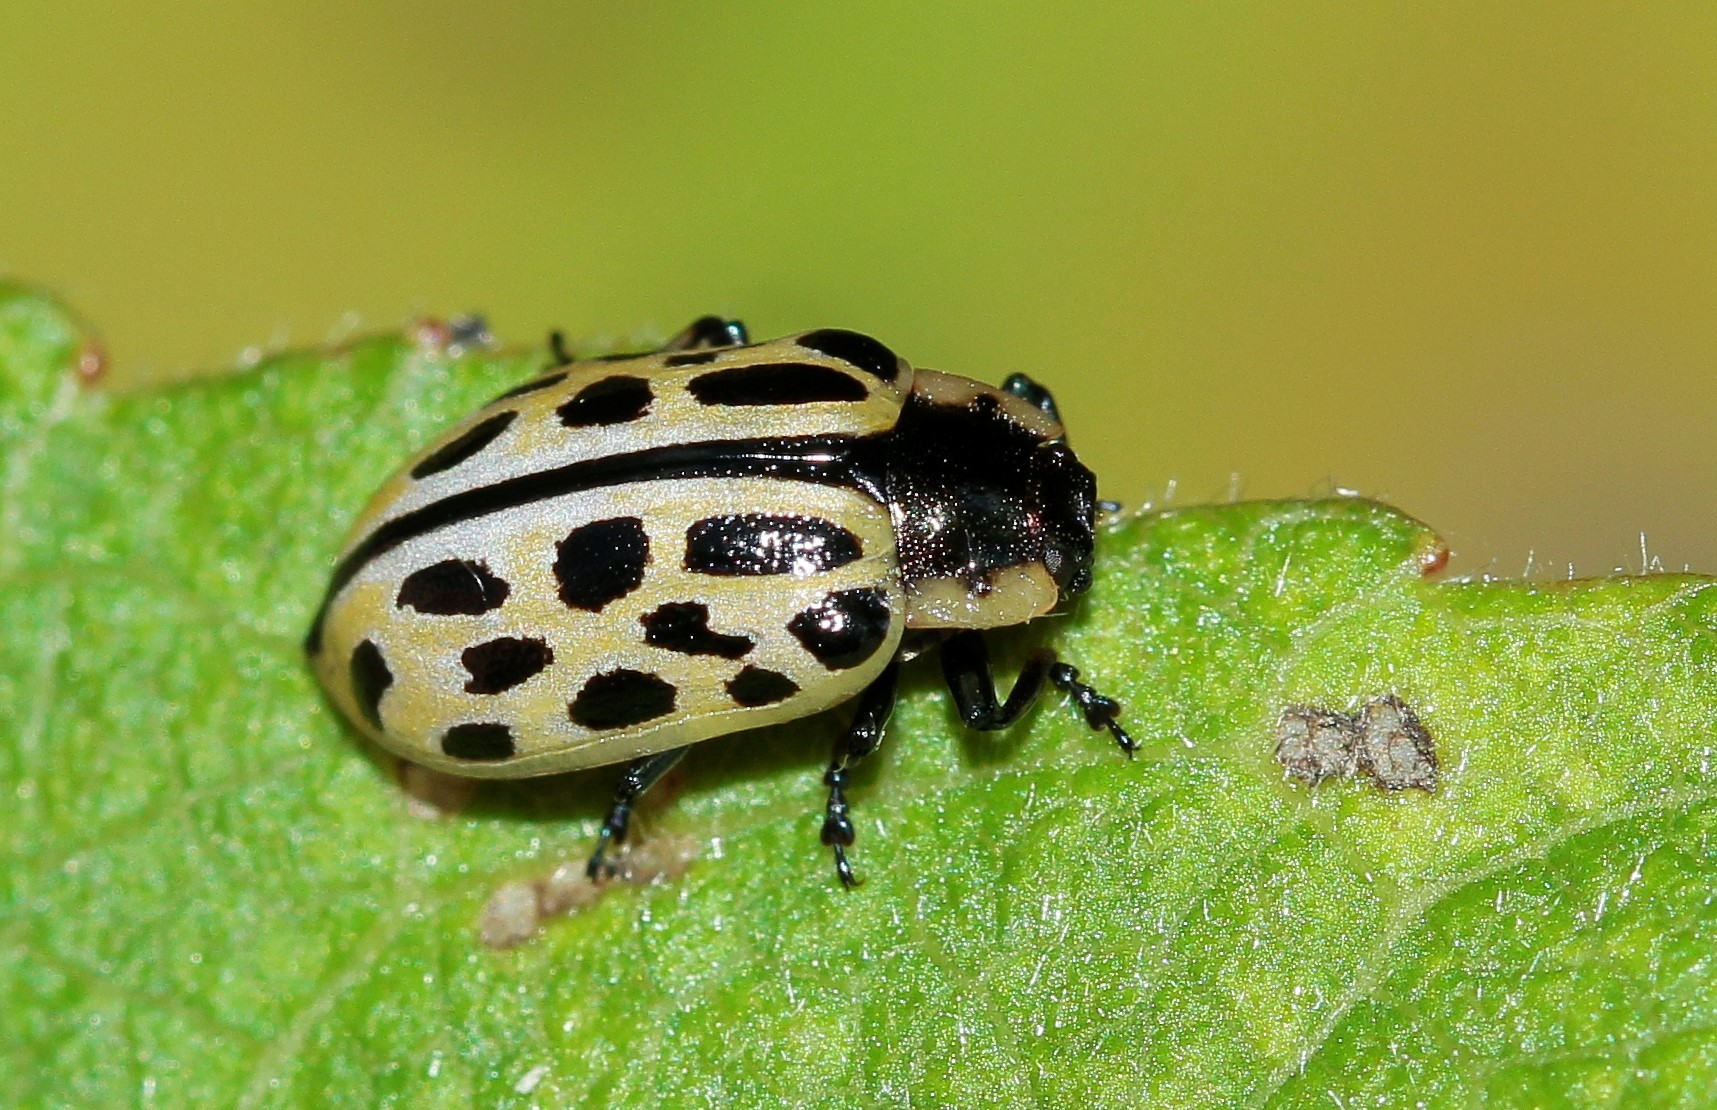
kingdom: Animalia
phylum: Arthropoda
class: Insecta
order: Coleoptera
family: Chrysomelidae
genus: Chrysomela
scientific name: Chrysomela vigintipunctata
